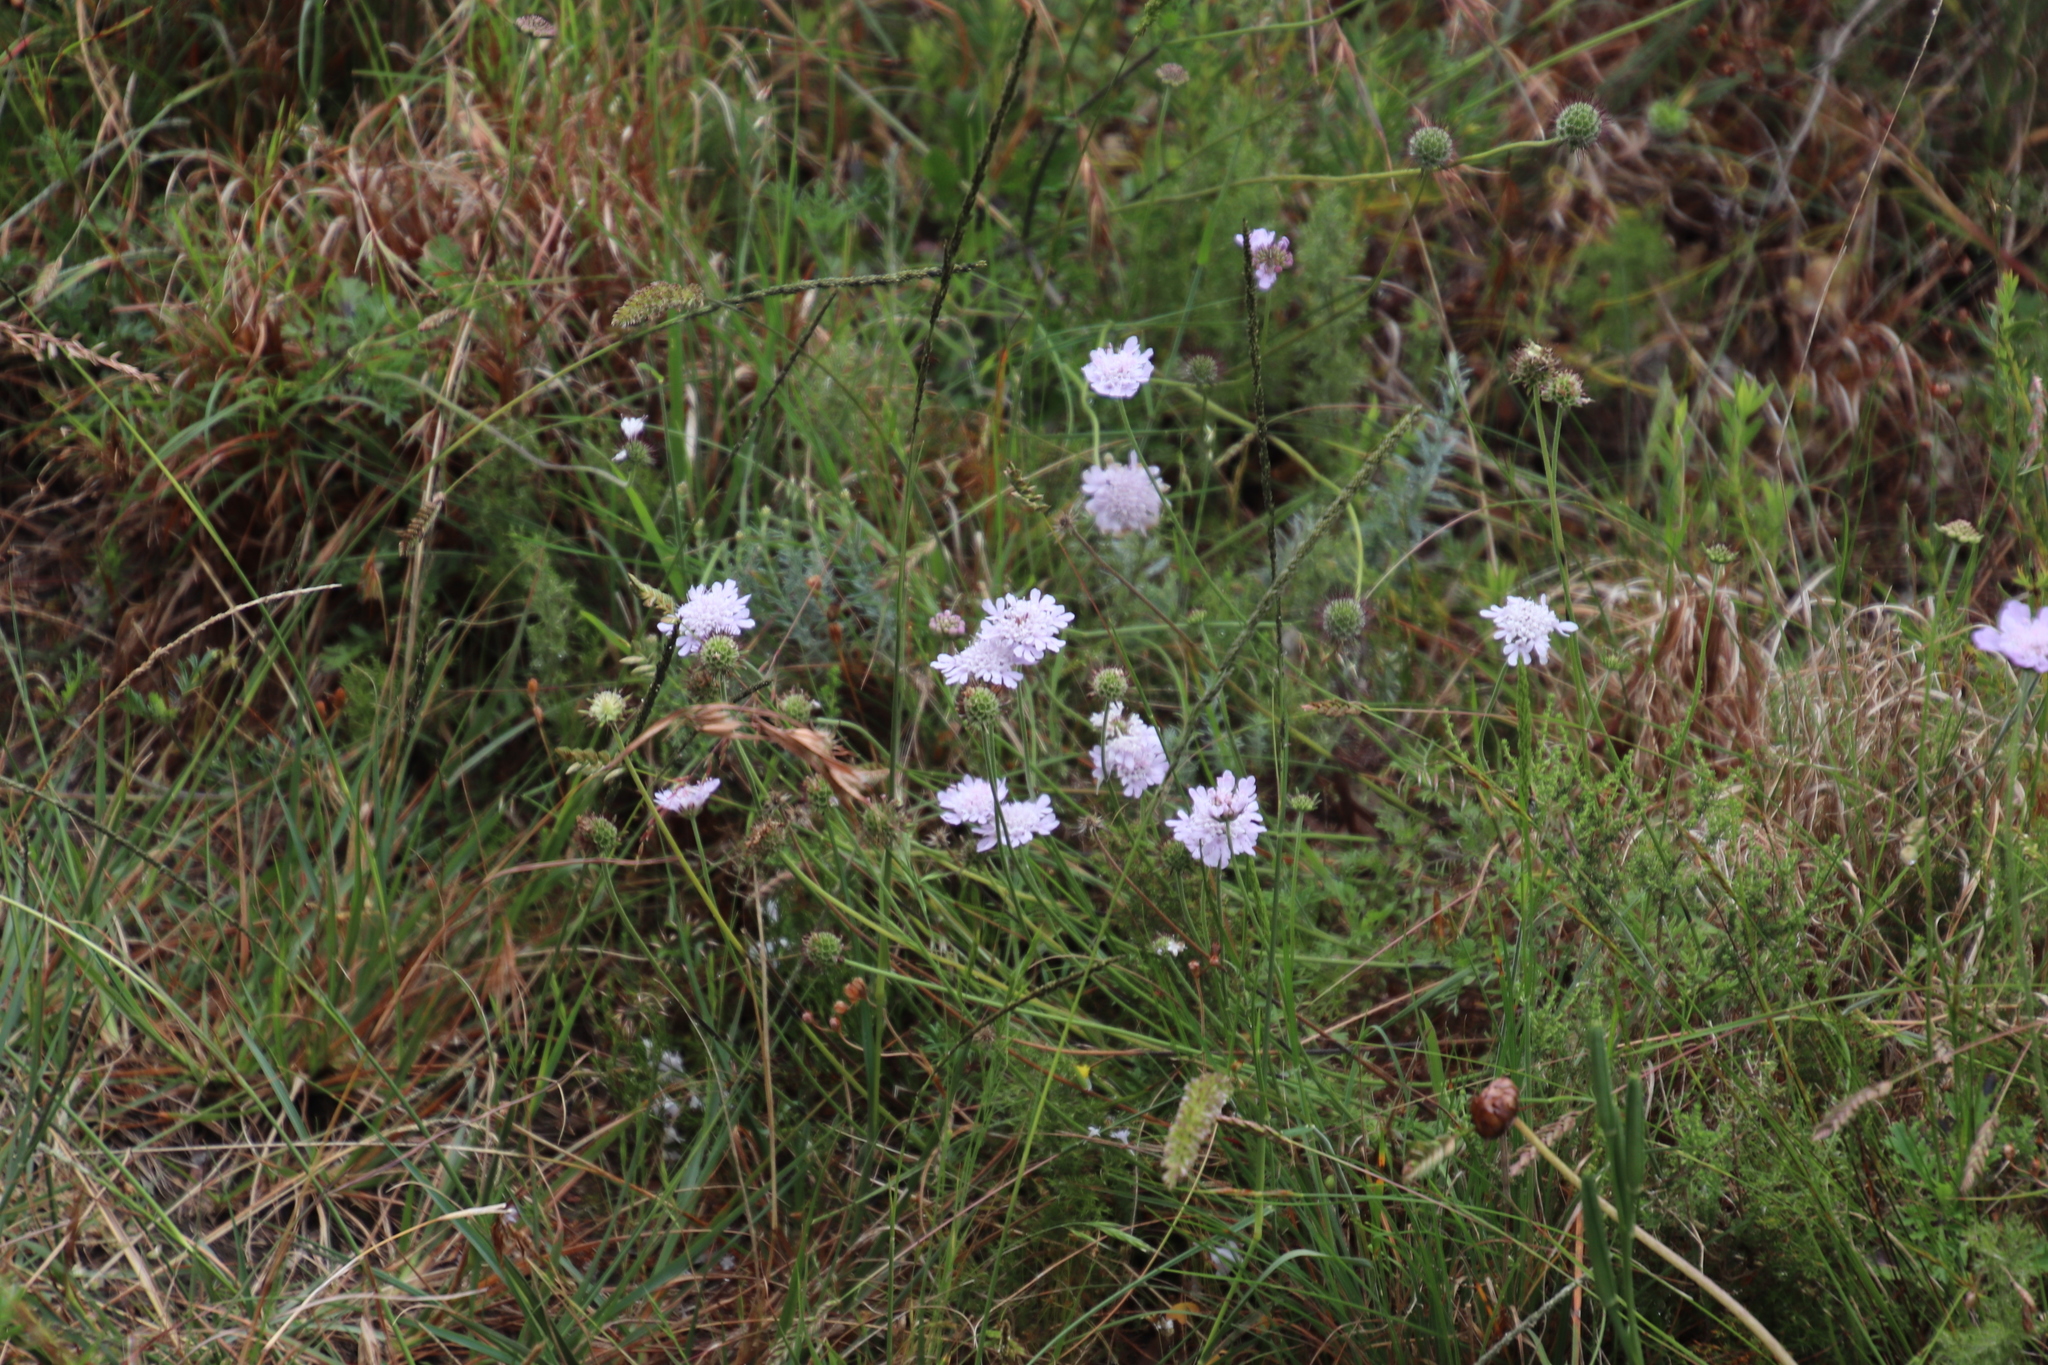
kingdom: Plantae
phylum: Tracheophyta
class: Magnoliopsida
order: Dipsacales
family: Caprifoliaceae
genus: Scabiosa
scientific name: Scabiosa incisa
